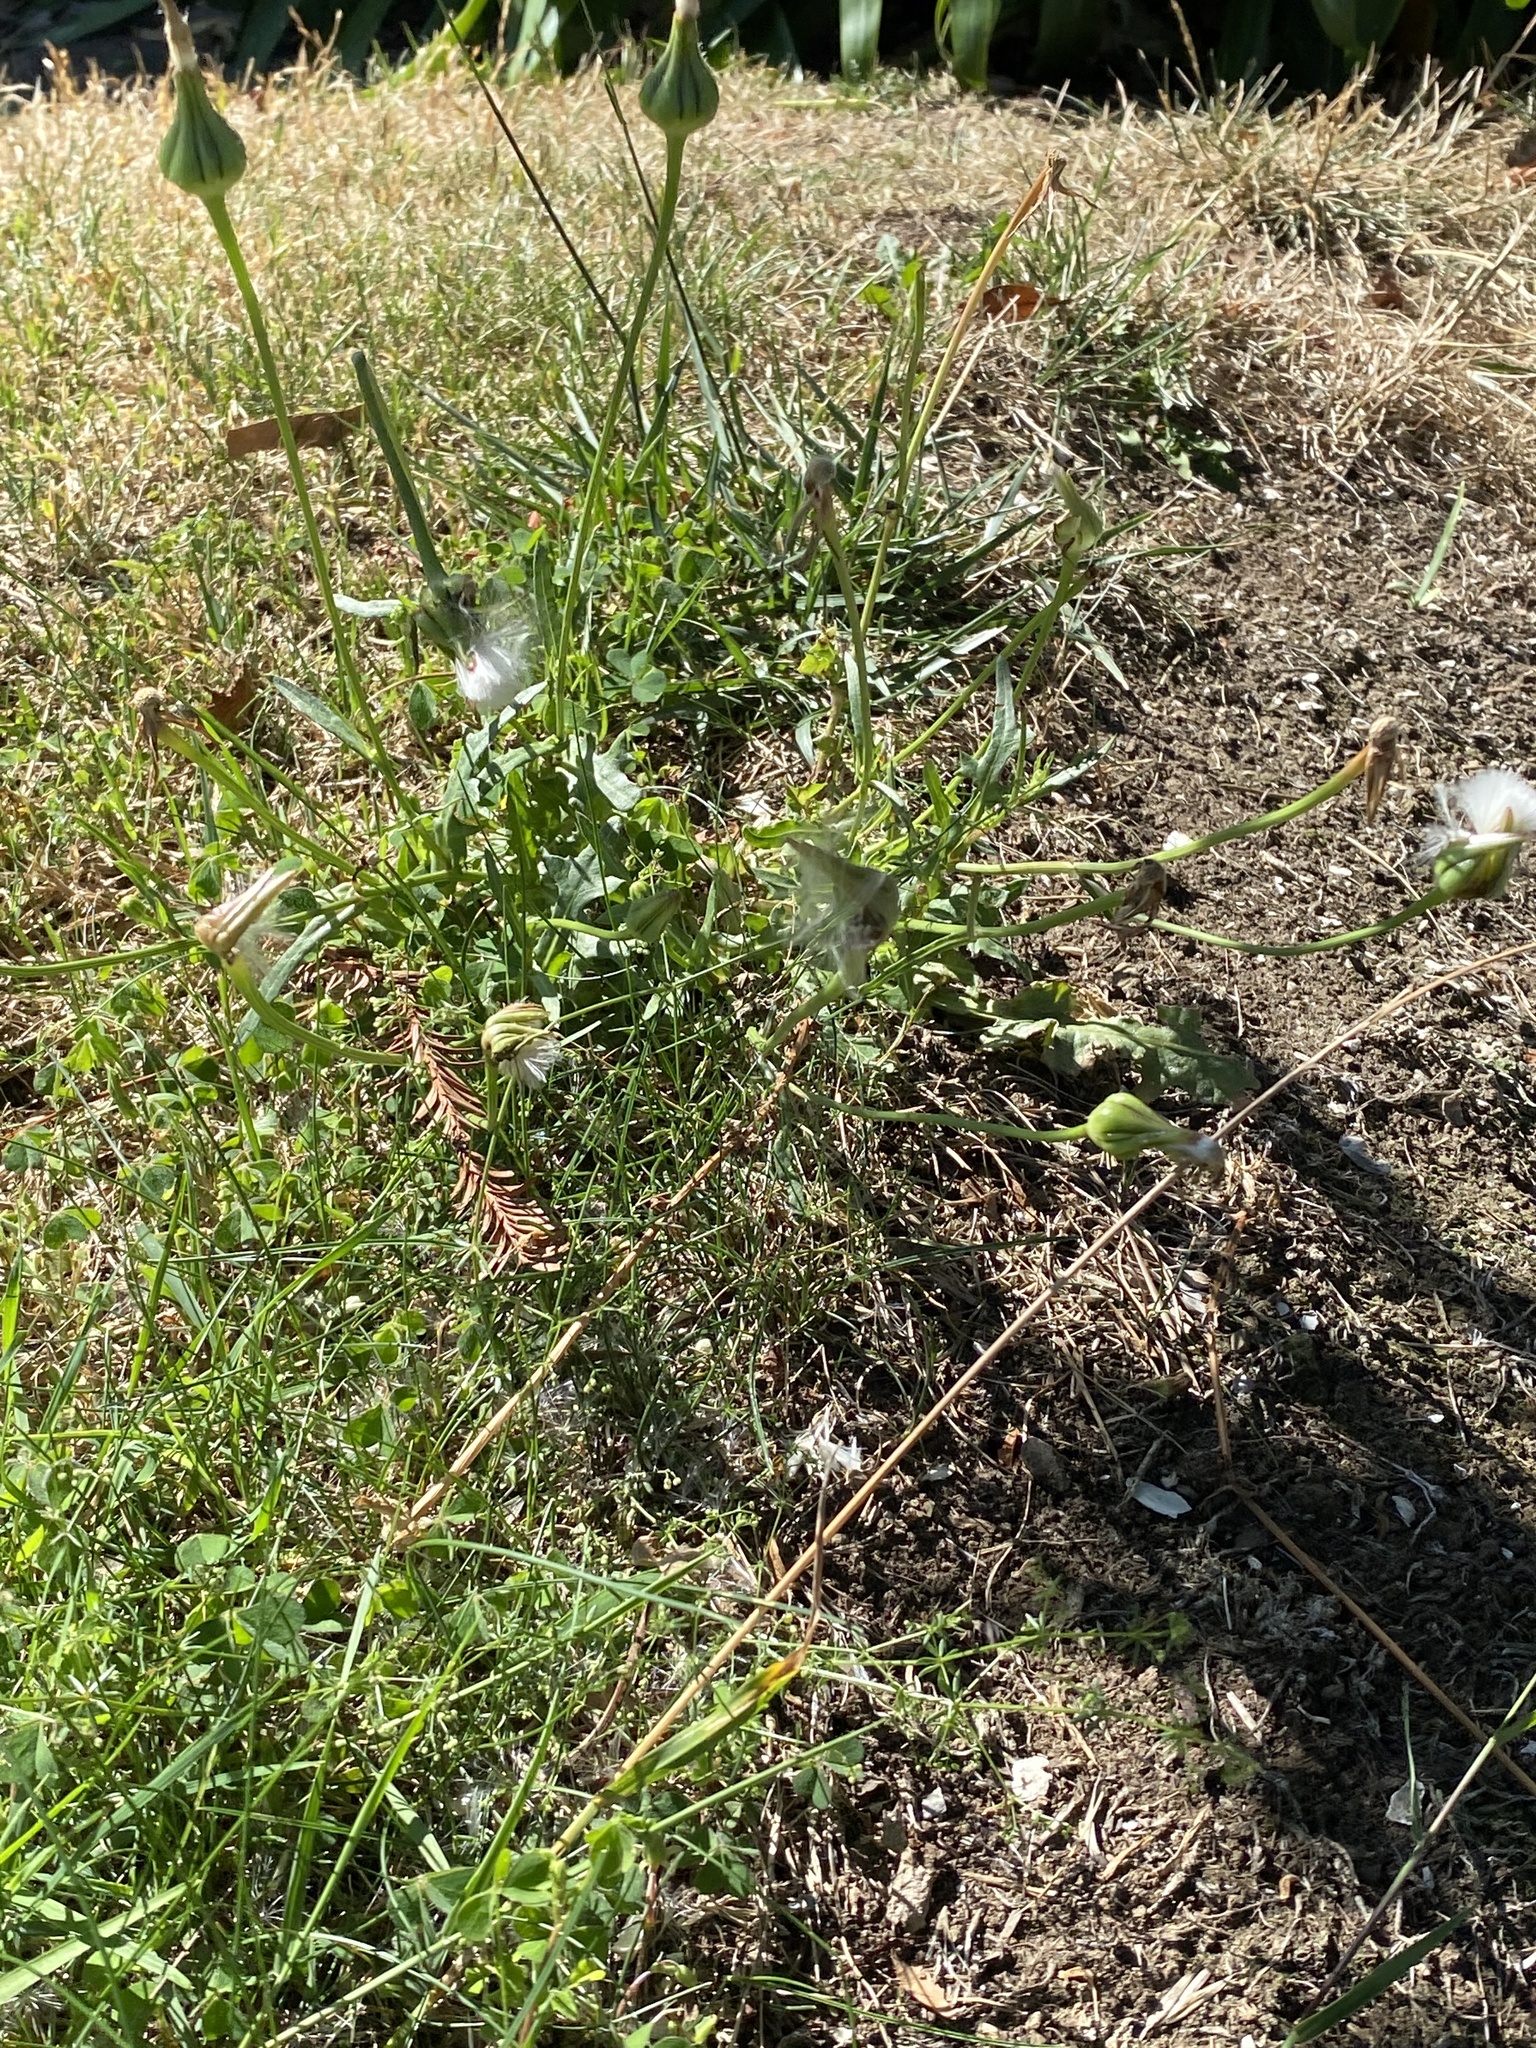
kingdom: Plantae
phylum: Tracheophyta
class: Magnoliopsida
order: Asterales
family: Asteraceae
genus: Urospermum
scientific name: Urospermum picroides
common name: False hawkbit
